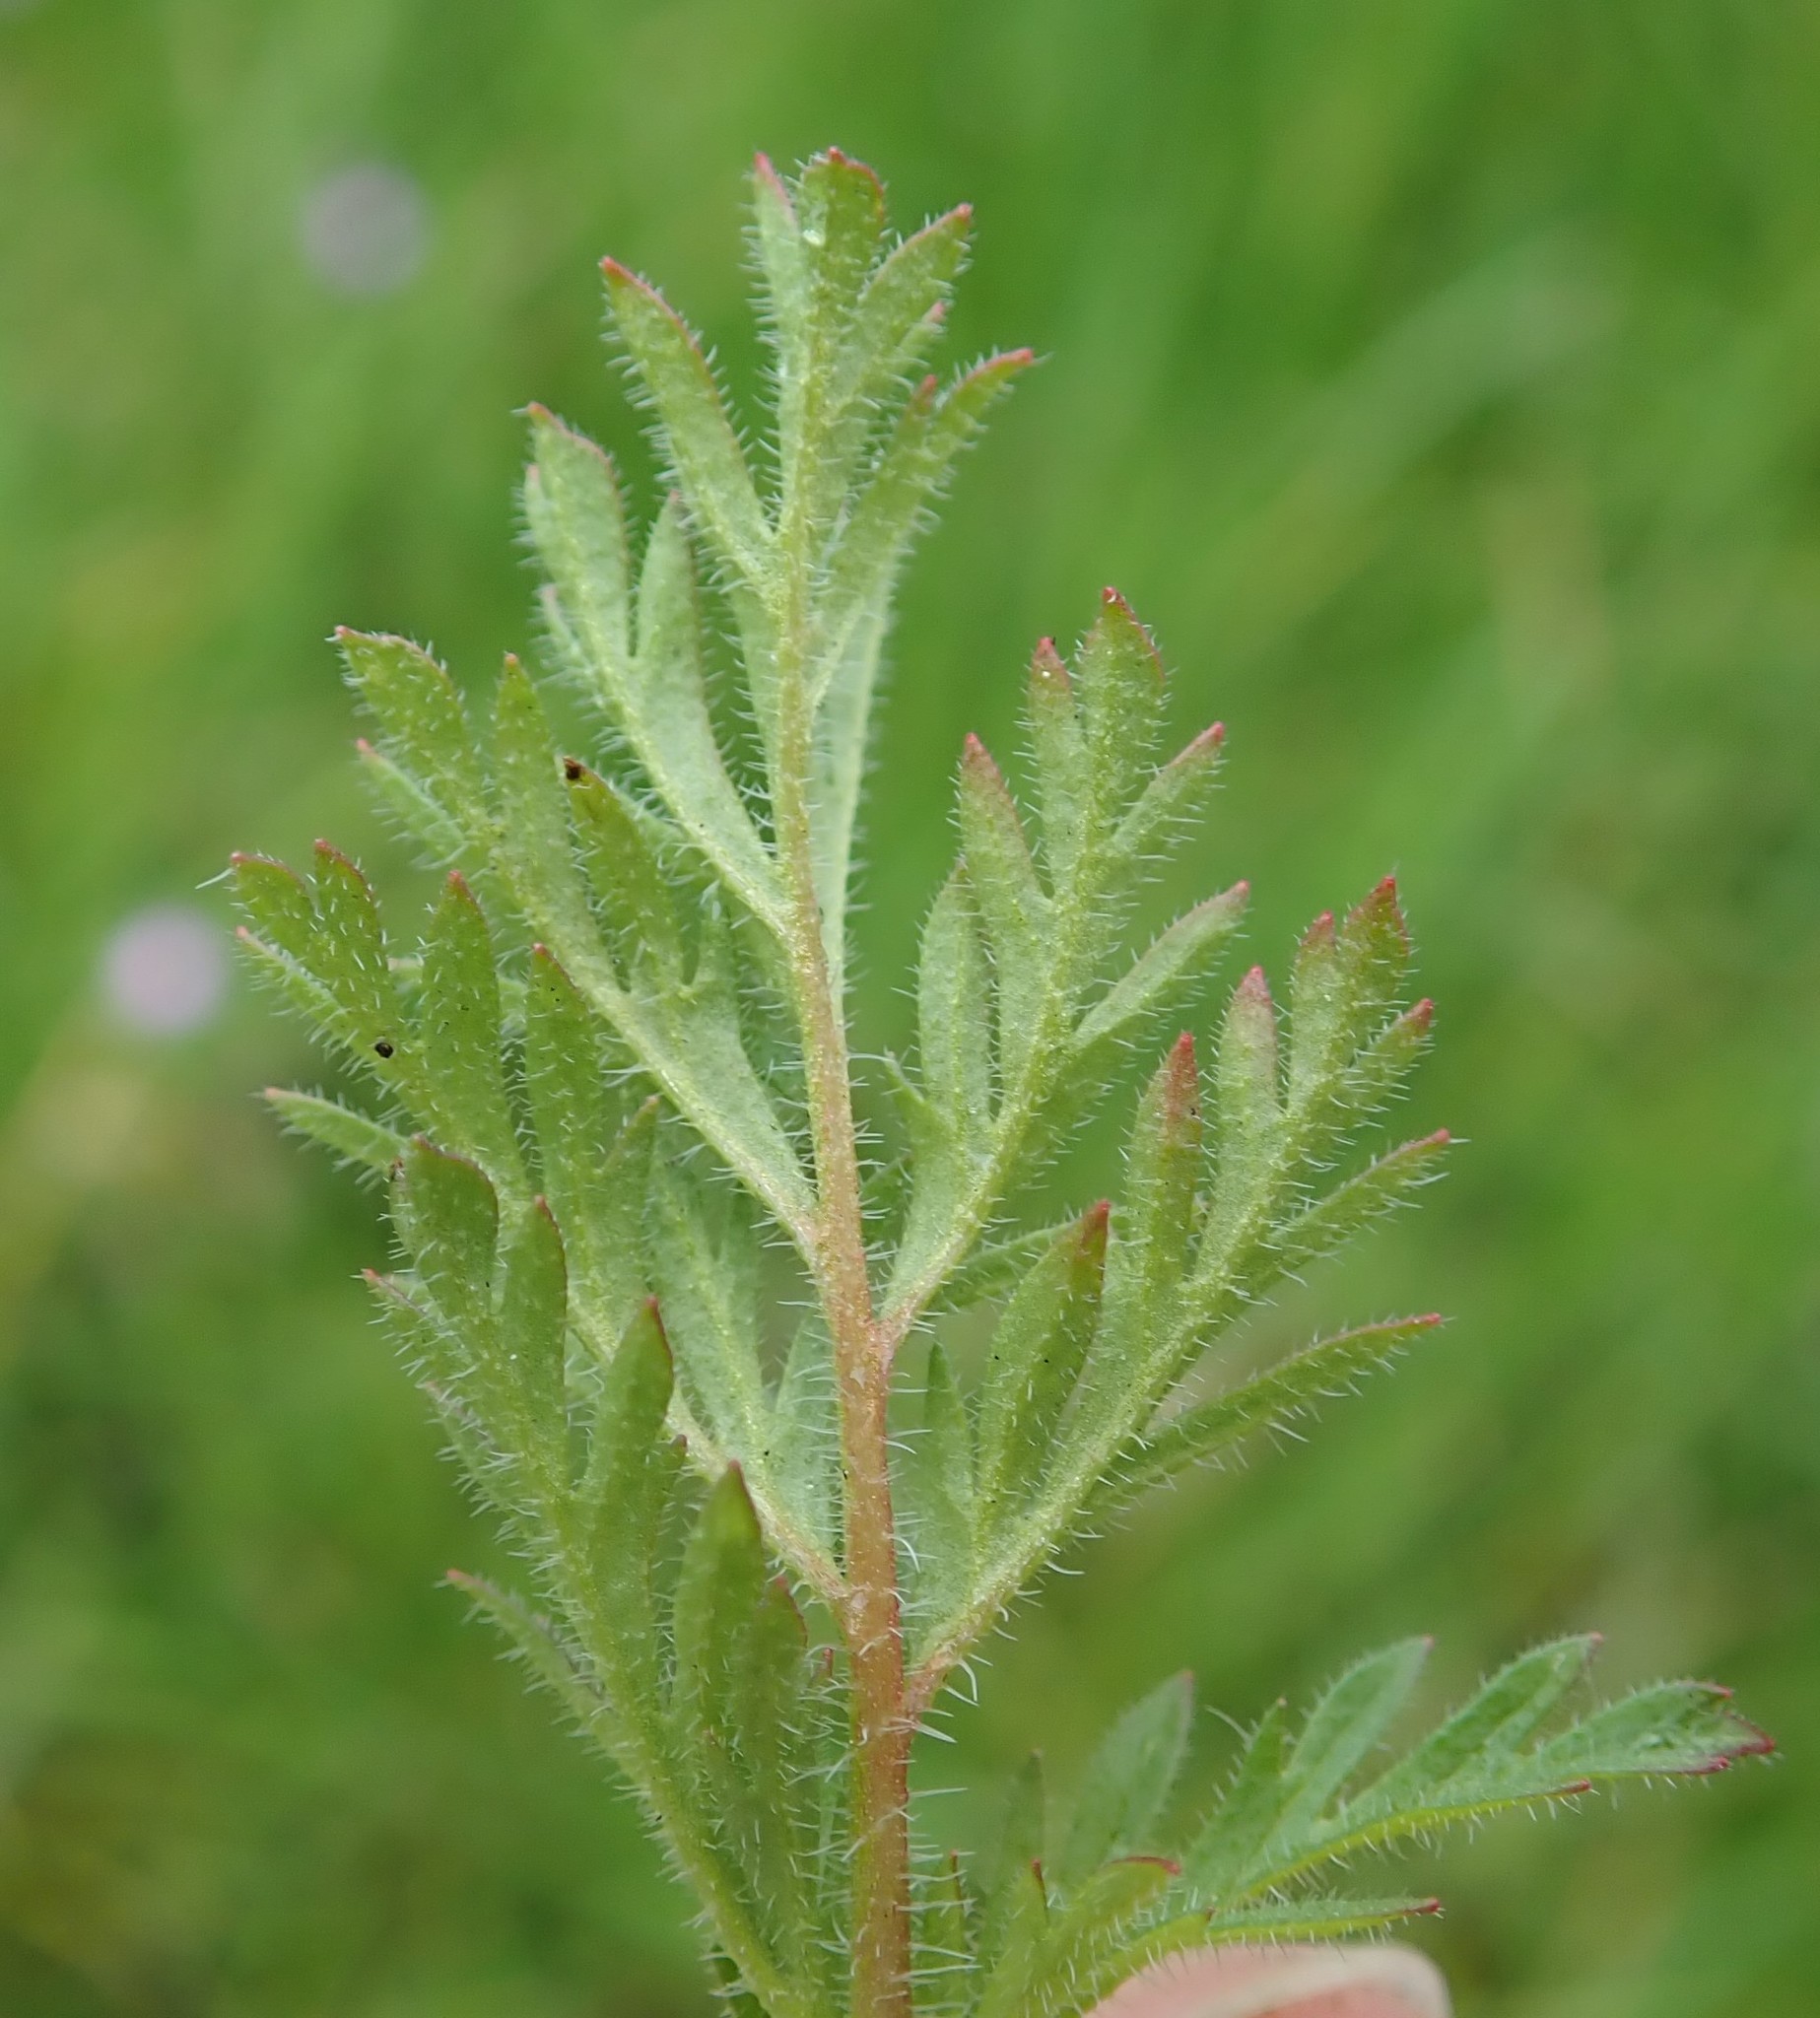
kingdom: Plantae
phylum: Tracheophyta
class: Magnoliopsida
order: Geraniales
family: Geraniaceae
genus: Erodium
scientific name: Erodium cicutarium
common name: Common stork's-bill
